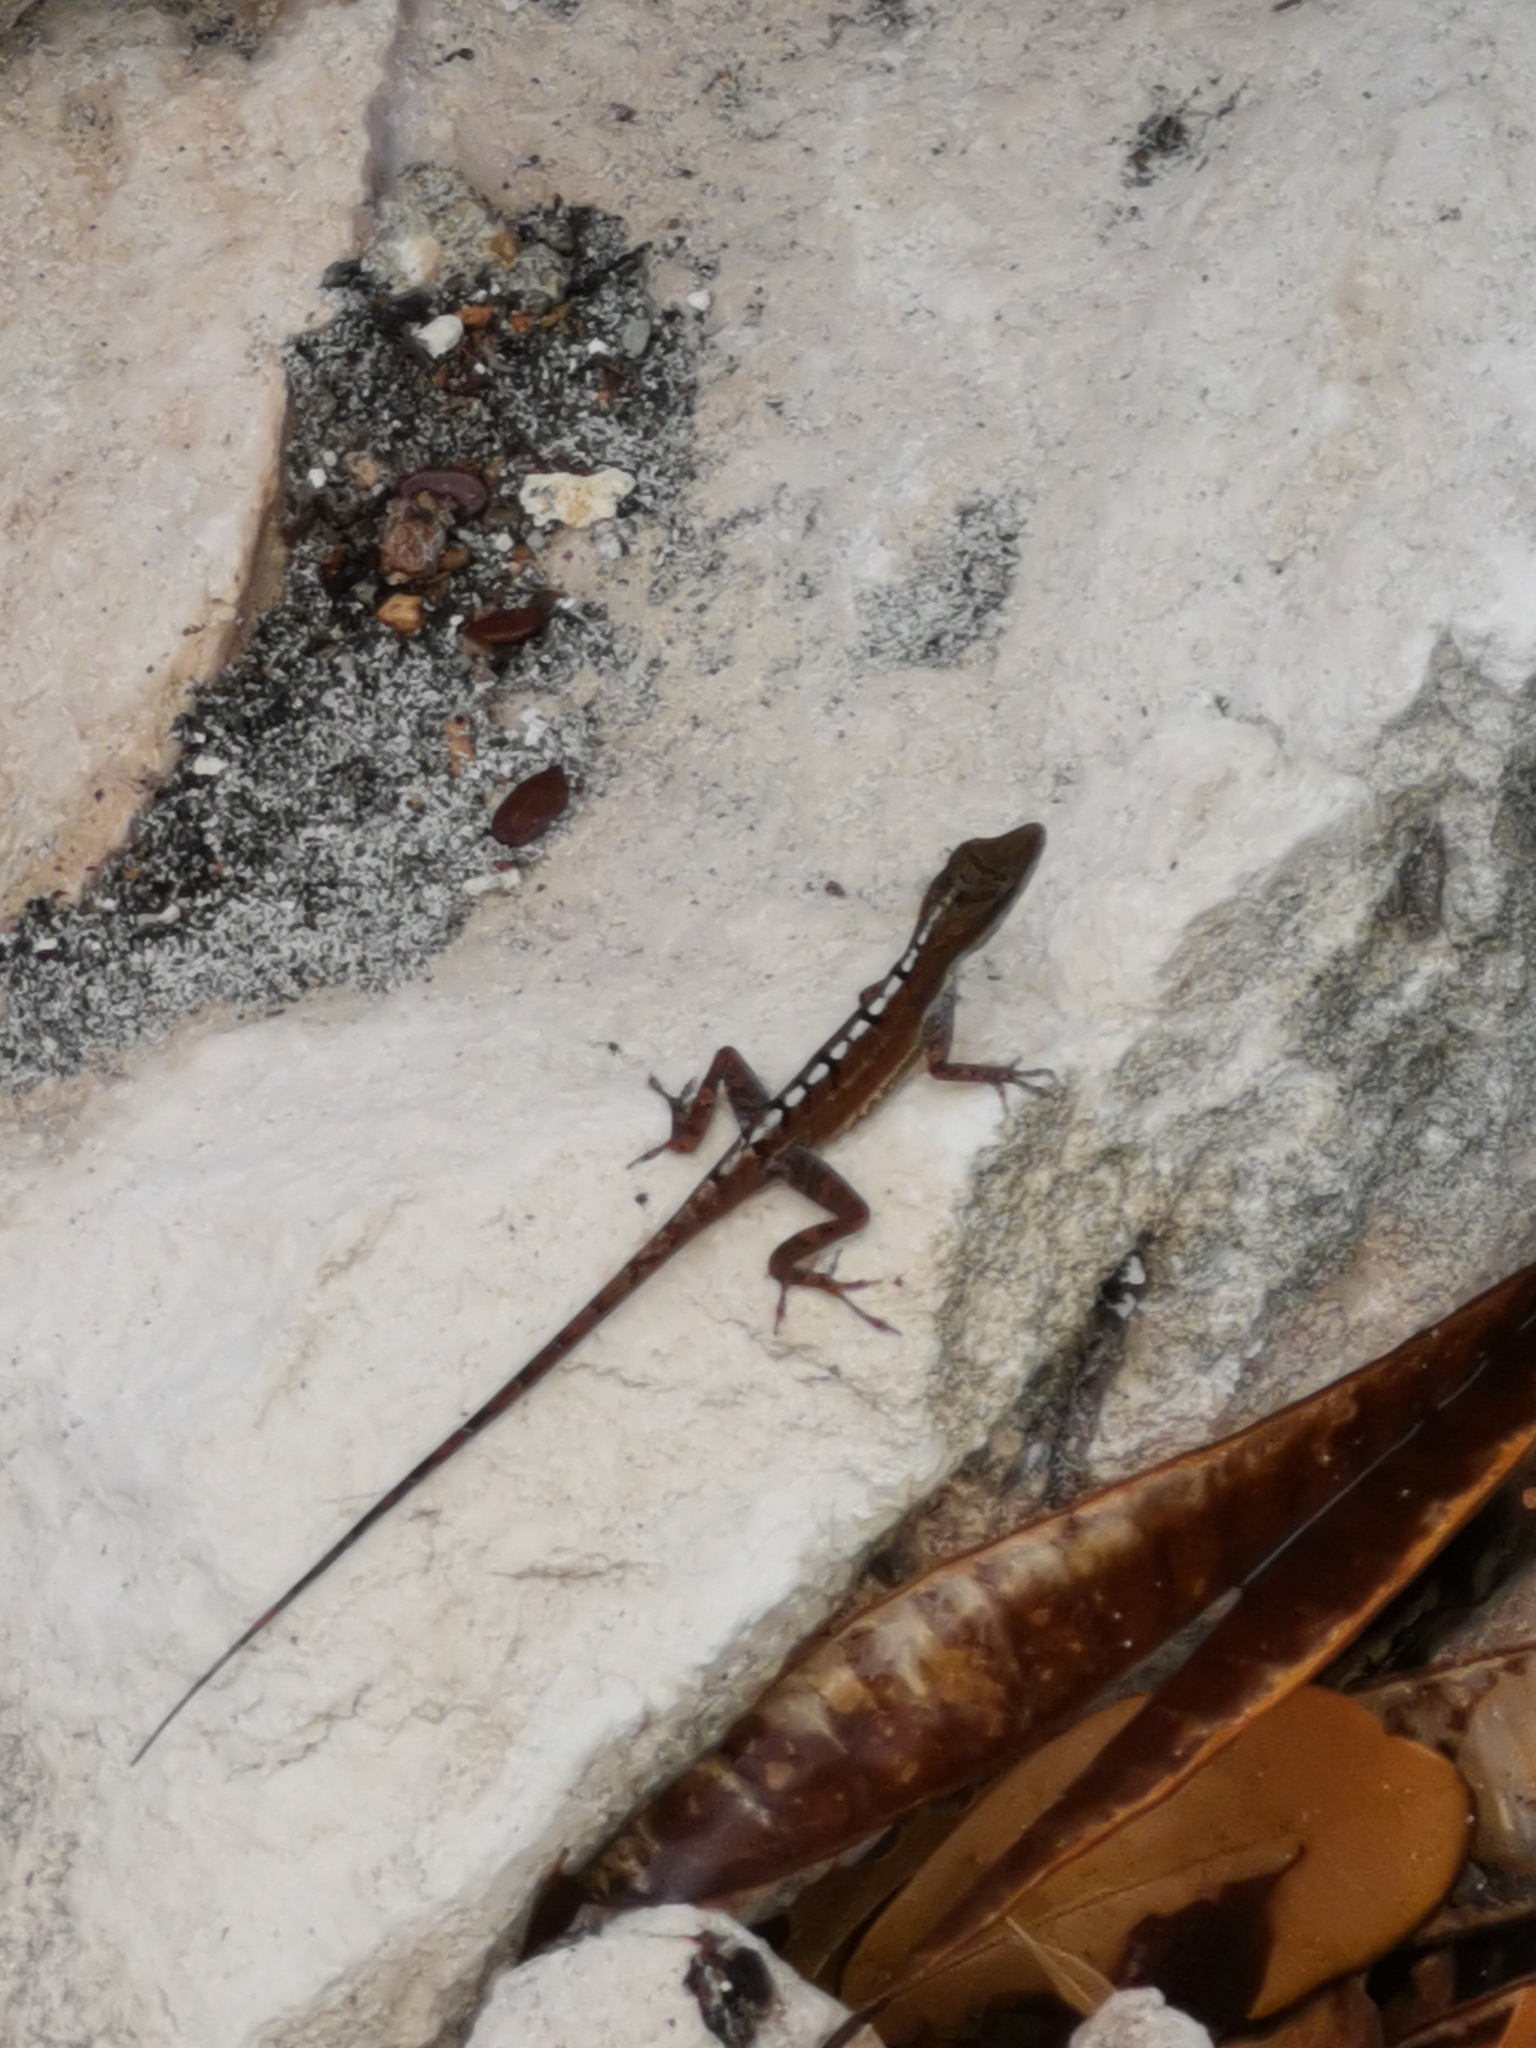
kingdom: Animalia
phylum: Chordata
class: Squamata
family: Dactyloidae
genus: Anolis
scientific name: Anolis scriptus
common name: Silver key anole
